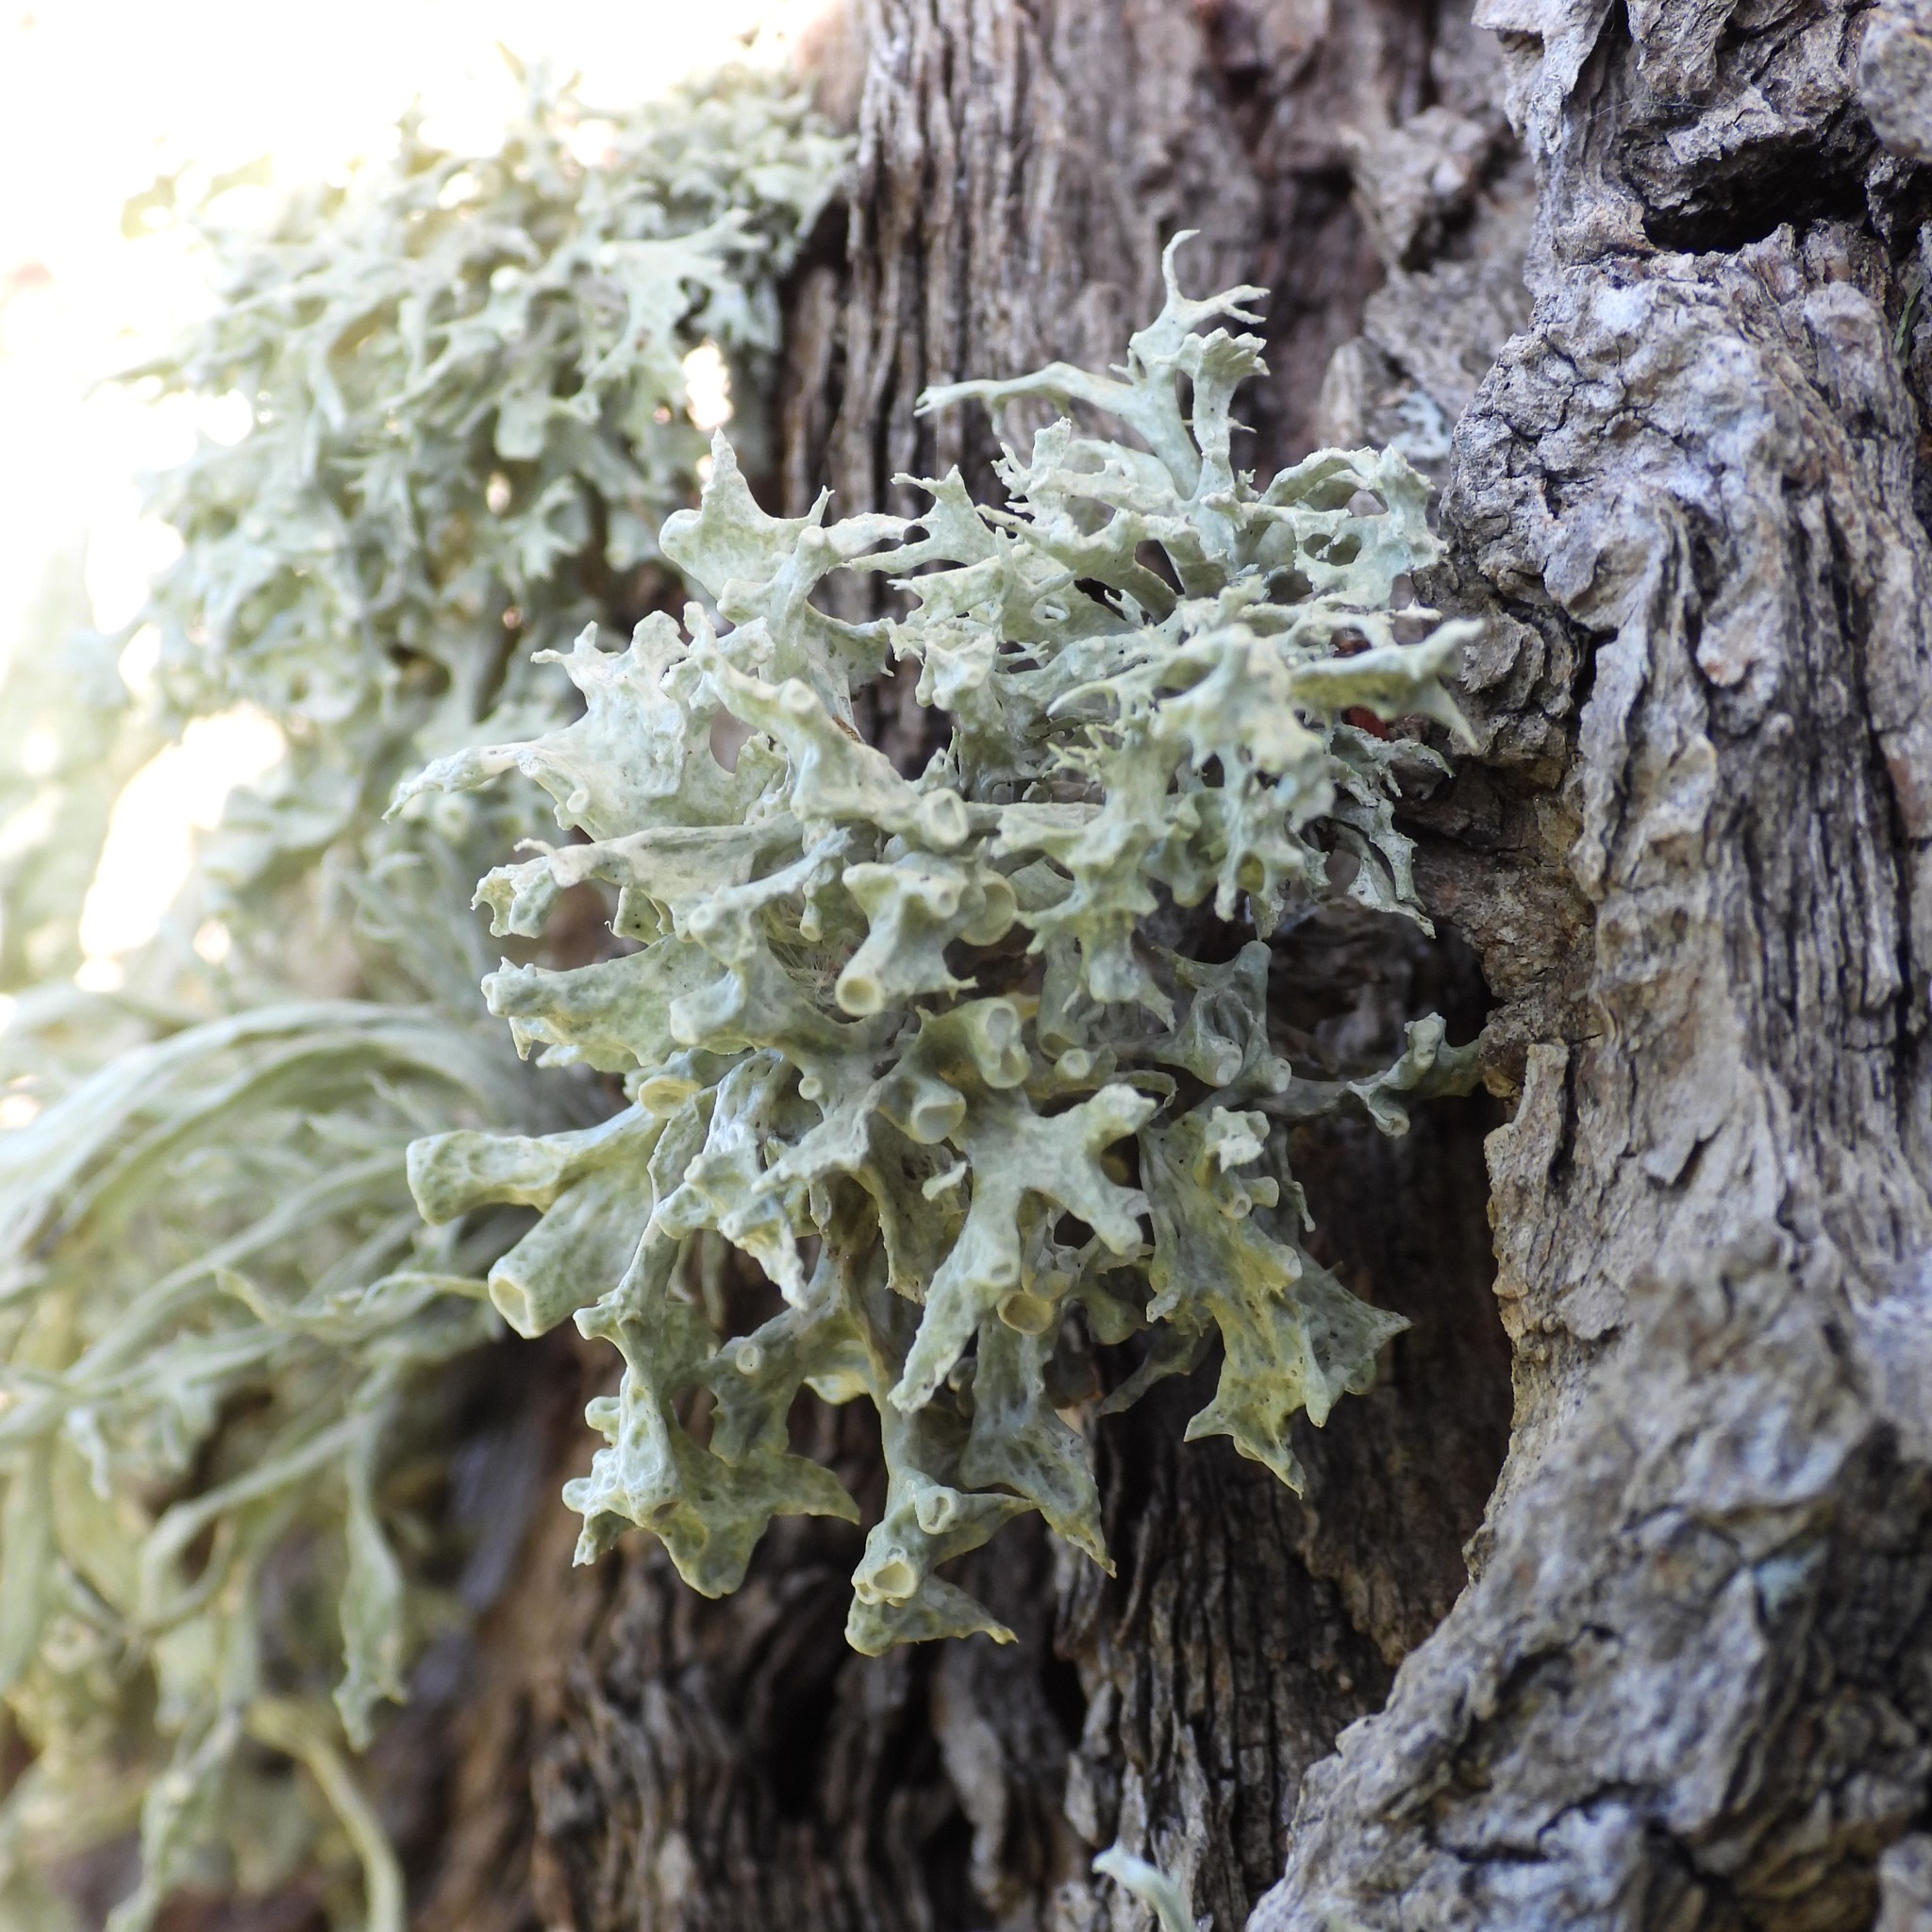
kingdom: Fungi
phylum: Ascomycota
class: Lecanoromycetes
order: Lecanorales
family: Ramalinaceae
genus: Ramalina
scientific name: Ramalina fastigiata
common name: Dotted ribbon lichen
